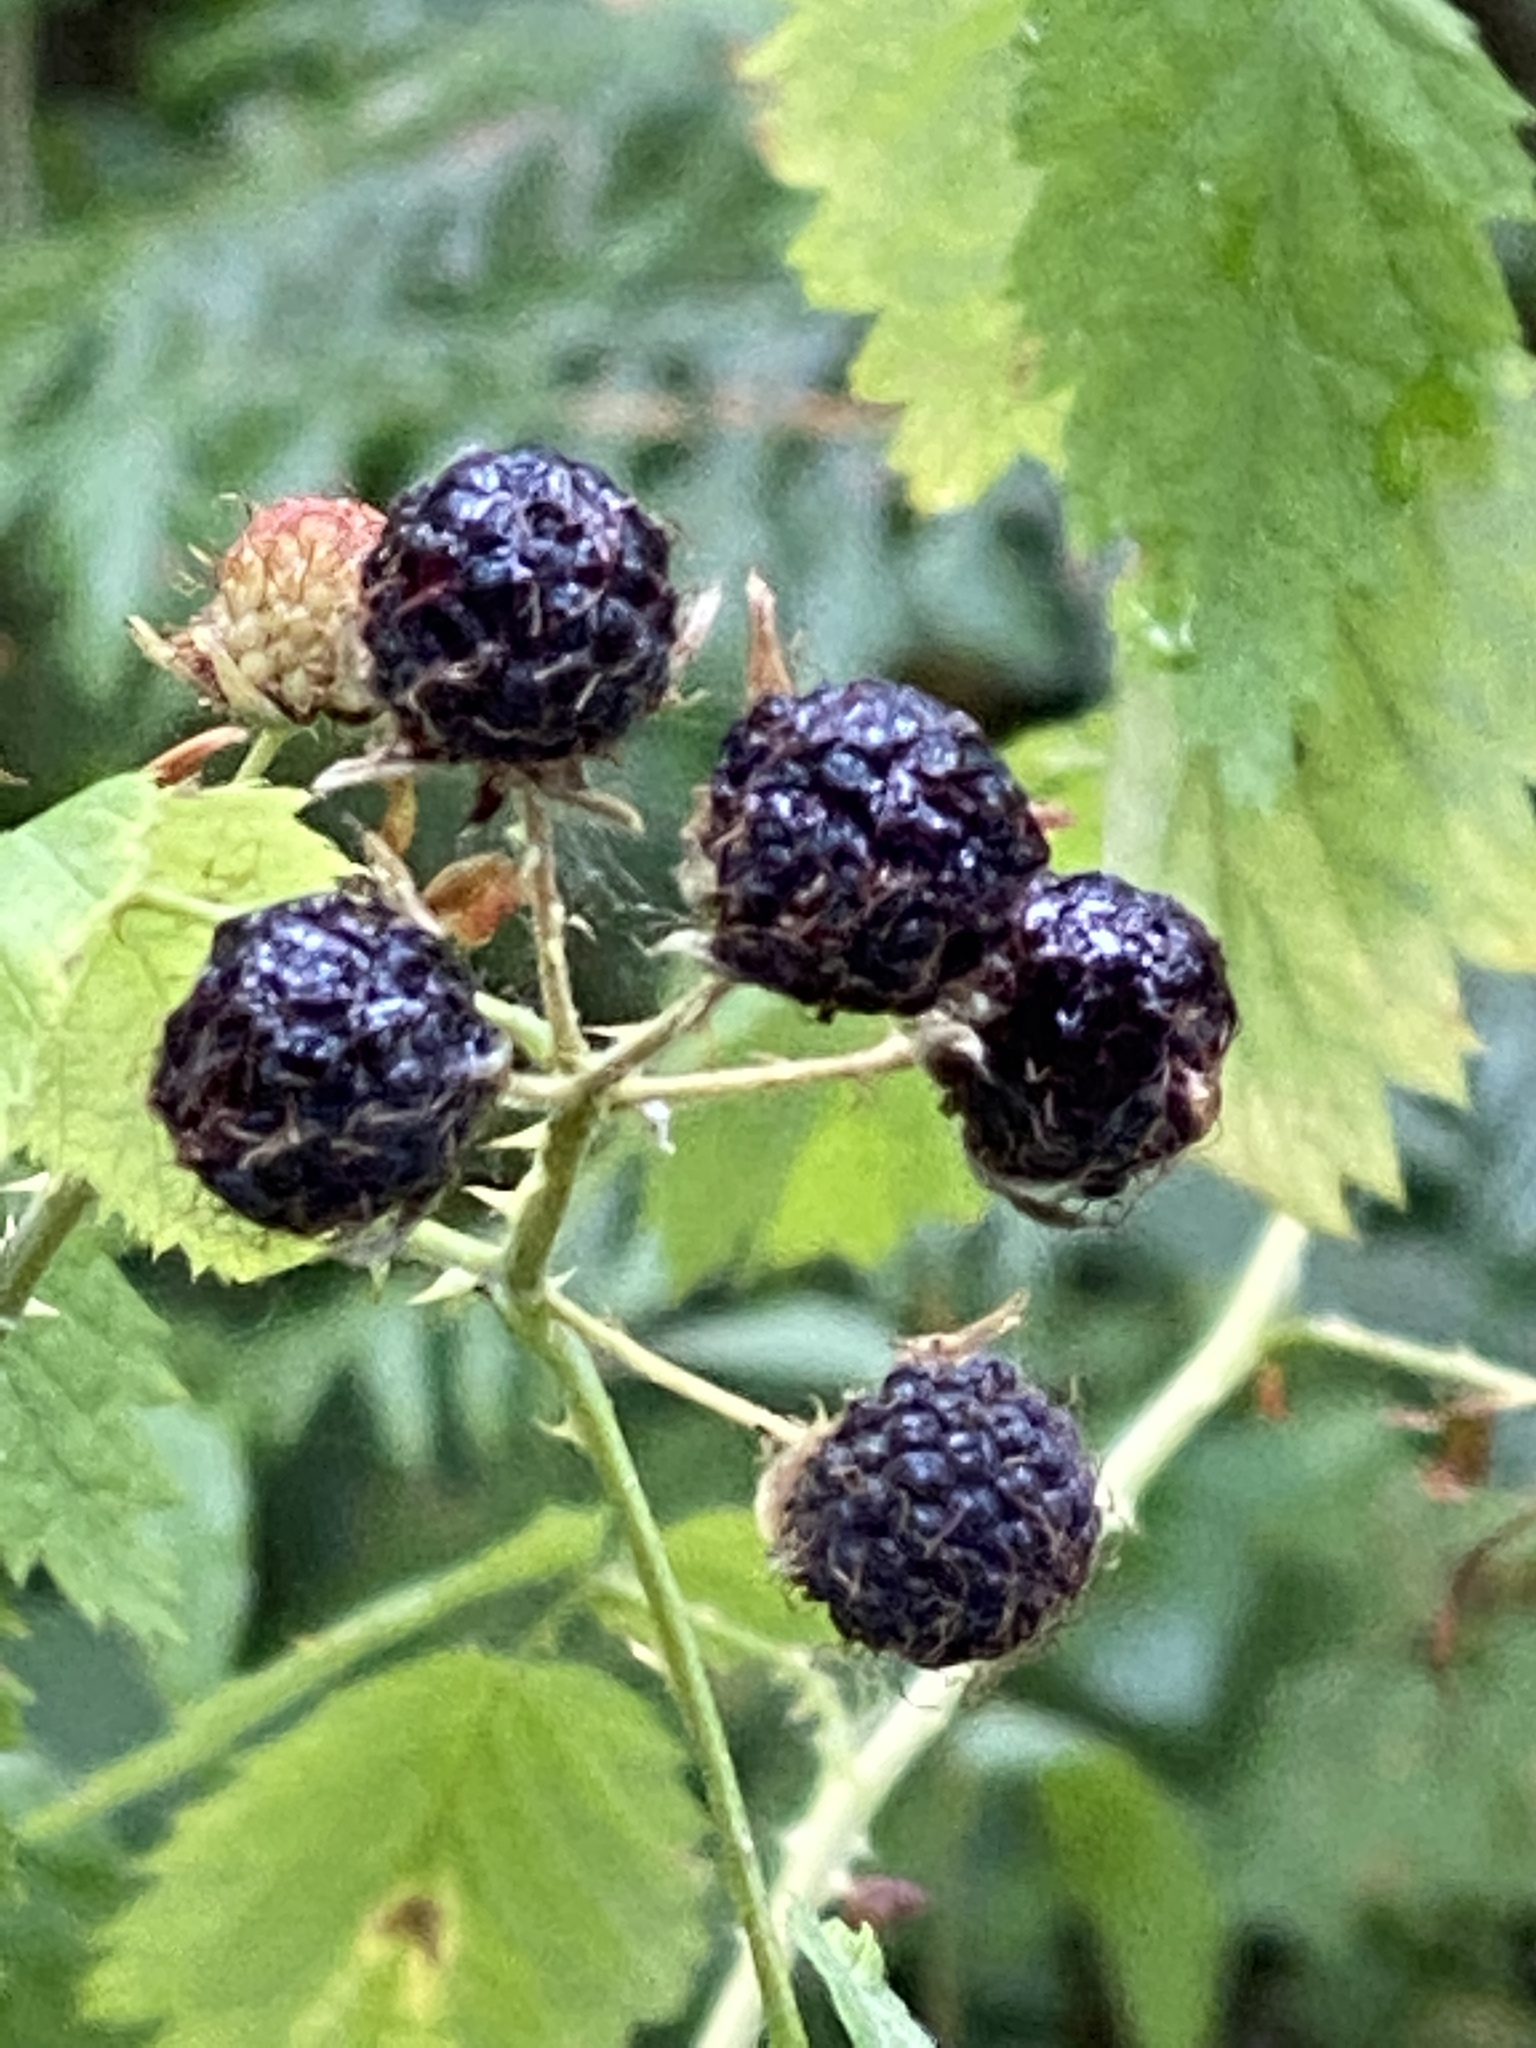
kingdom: Plantae
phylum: Tracheophyta
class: Magnoliopsida
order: Rosales
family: Rosaceae
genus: Rubus
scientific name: Rubus leucodermis
